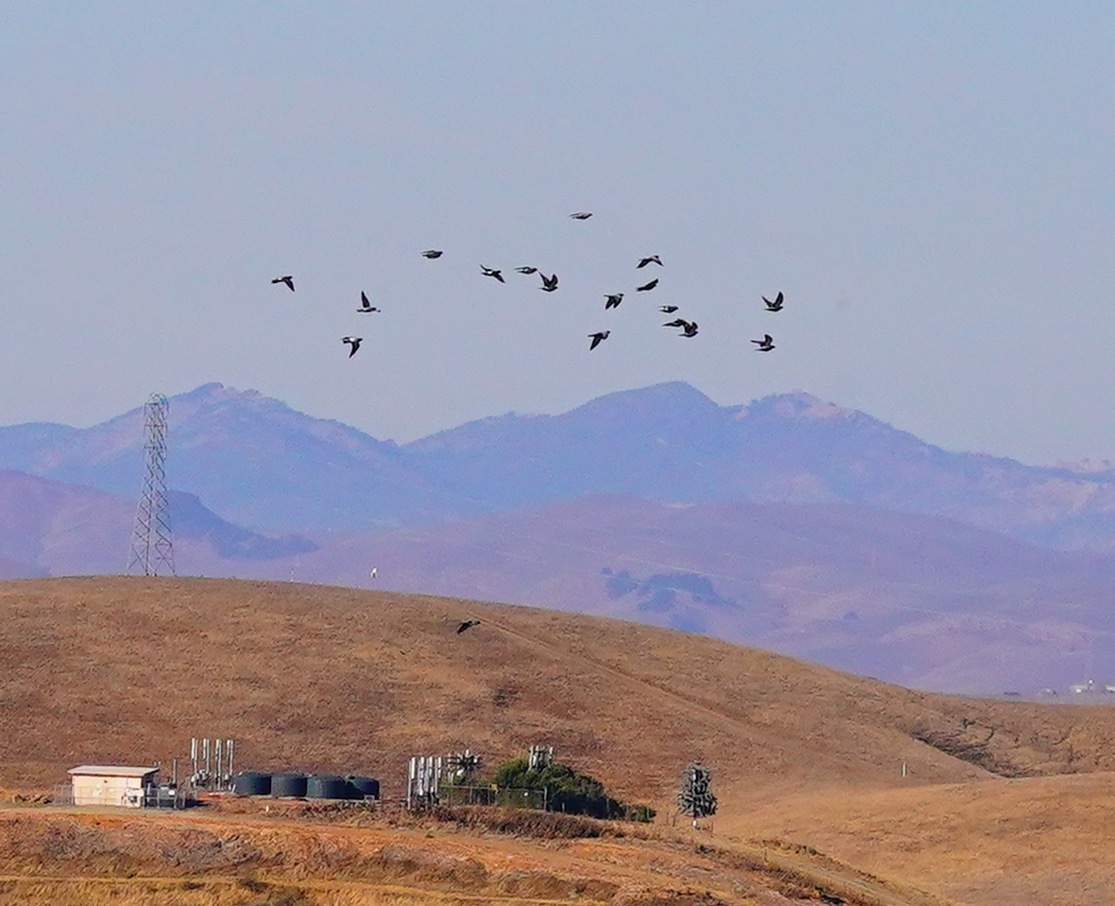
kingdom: Animalia
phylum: Chordata
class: Aves
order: Columbiformes
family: Columbidae
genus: Columba
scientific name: Columba livia
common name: Rock pigeon
